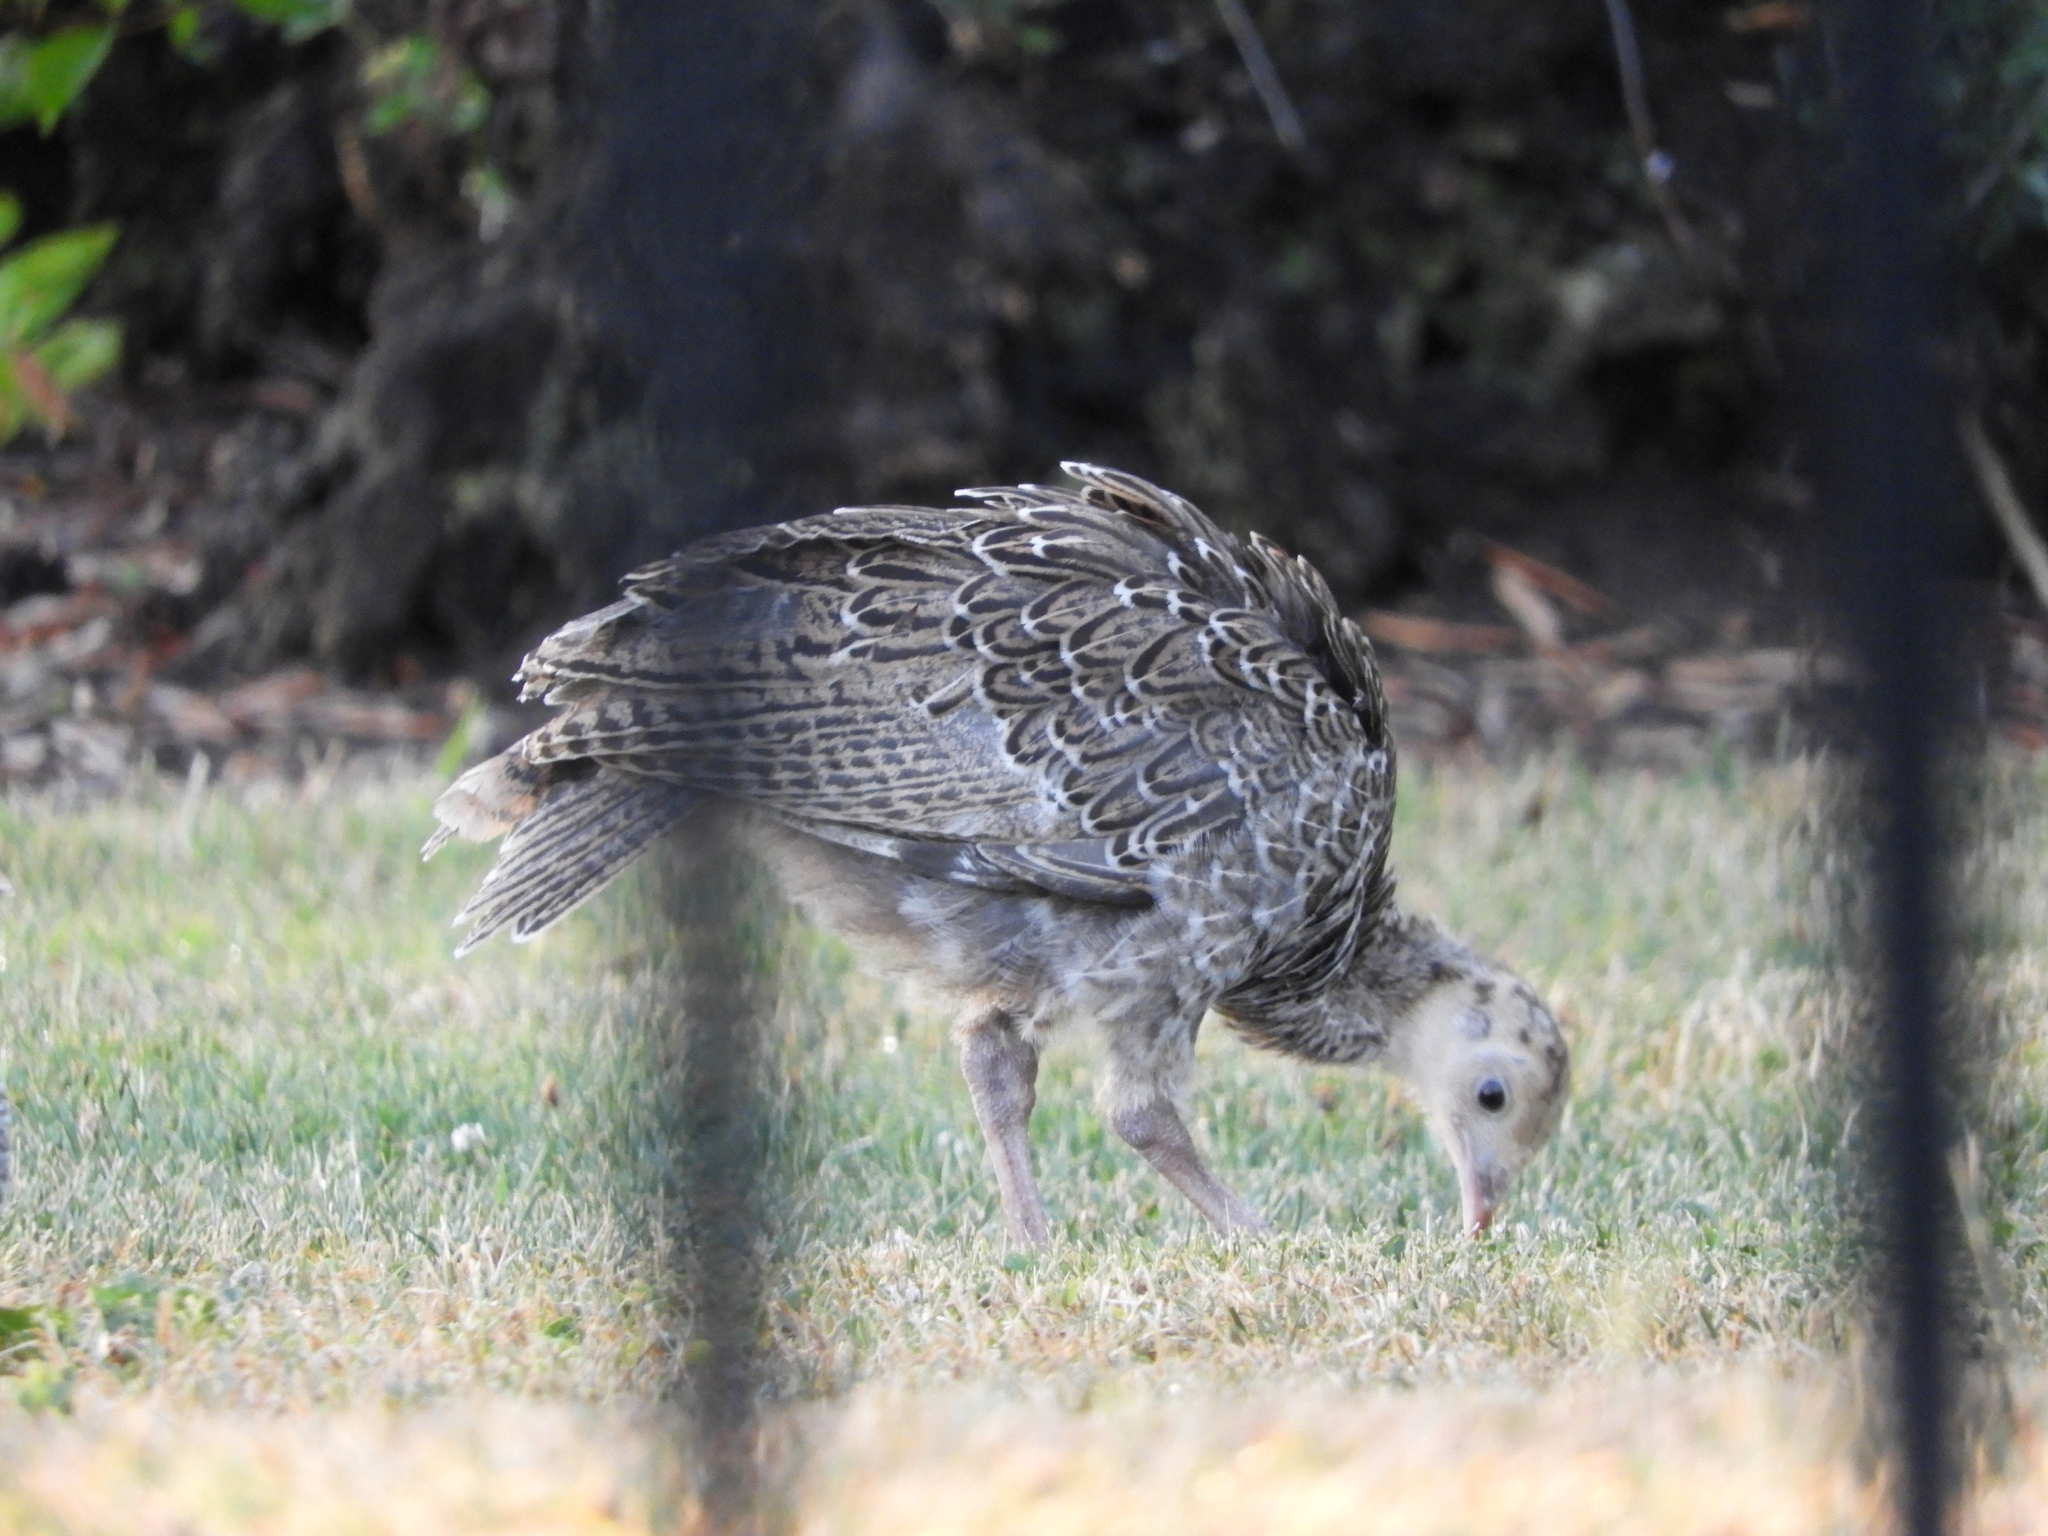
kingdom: Animalia
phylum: Chordata
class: Aves
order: Galliformes
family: Phasianidae
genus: Meleagris
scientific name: Meleagris gallopavo
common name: Wild turkey
